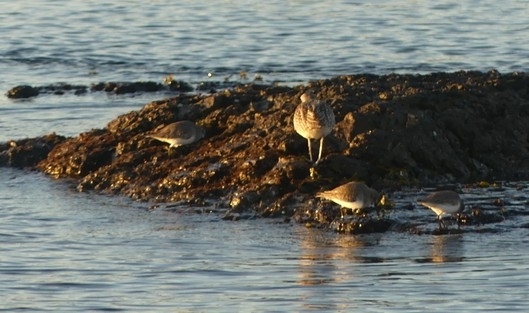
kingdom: Animalia
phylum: Chordata
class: Aves
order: Charadriiformes
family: Charadriidae
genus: Pluvialis
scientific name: Pluvialis squatarola
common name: Grey plover
